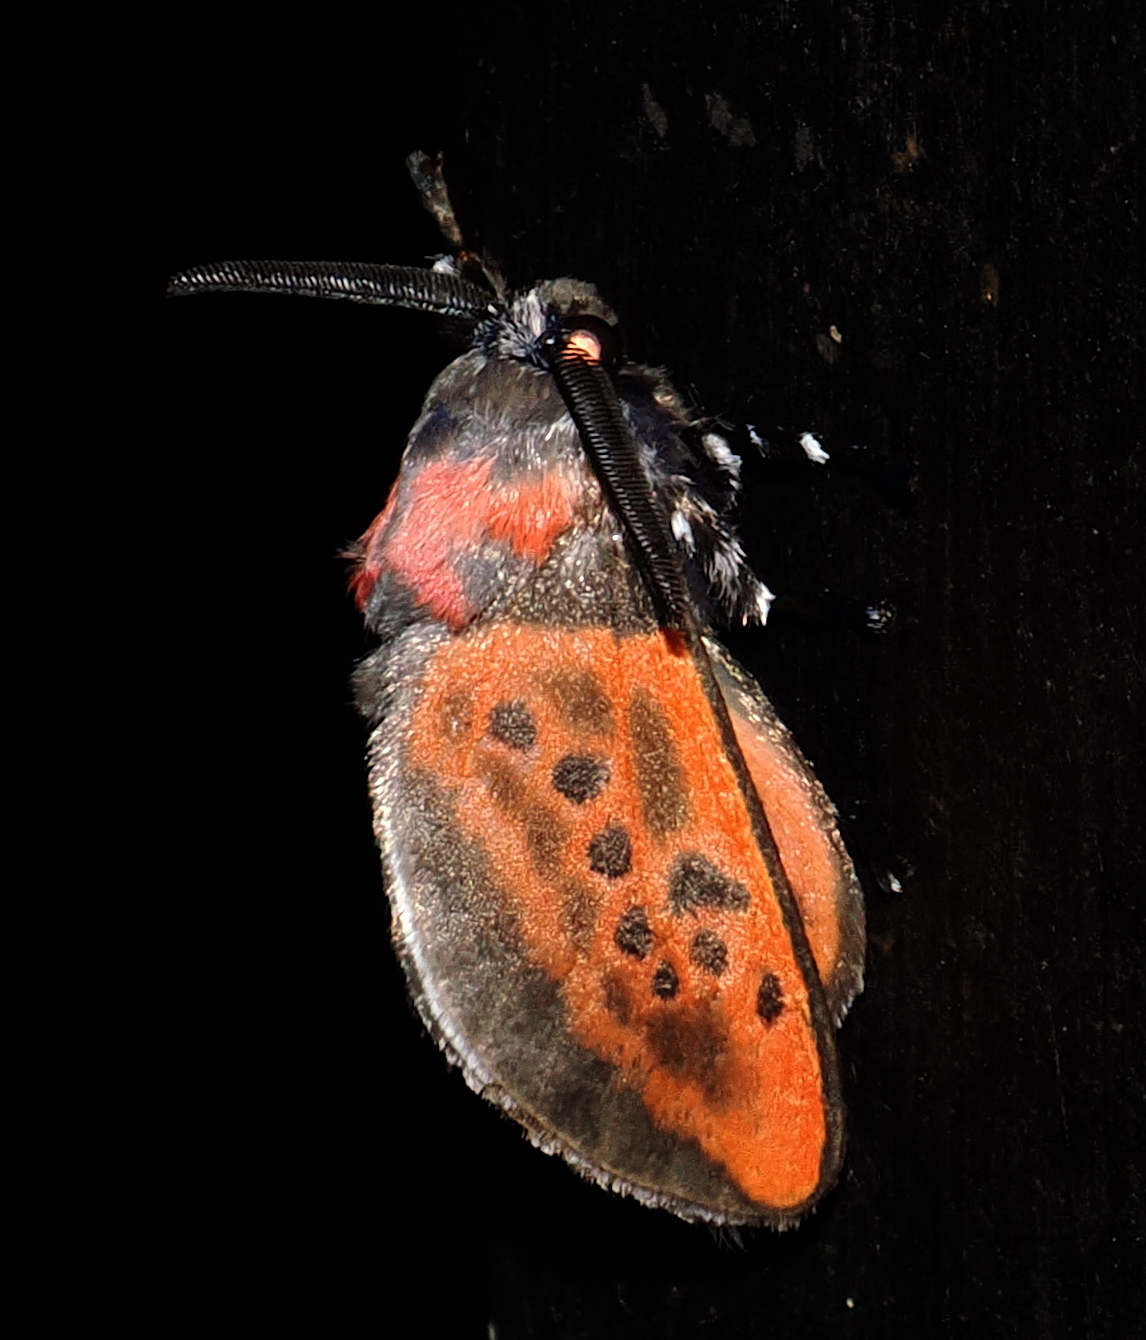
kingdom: Animalia
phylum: Arthropoda
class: Insecta
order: Lepidoptera
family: Megalopygidae
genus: Langucys
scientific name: Langucys nigropuncta
